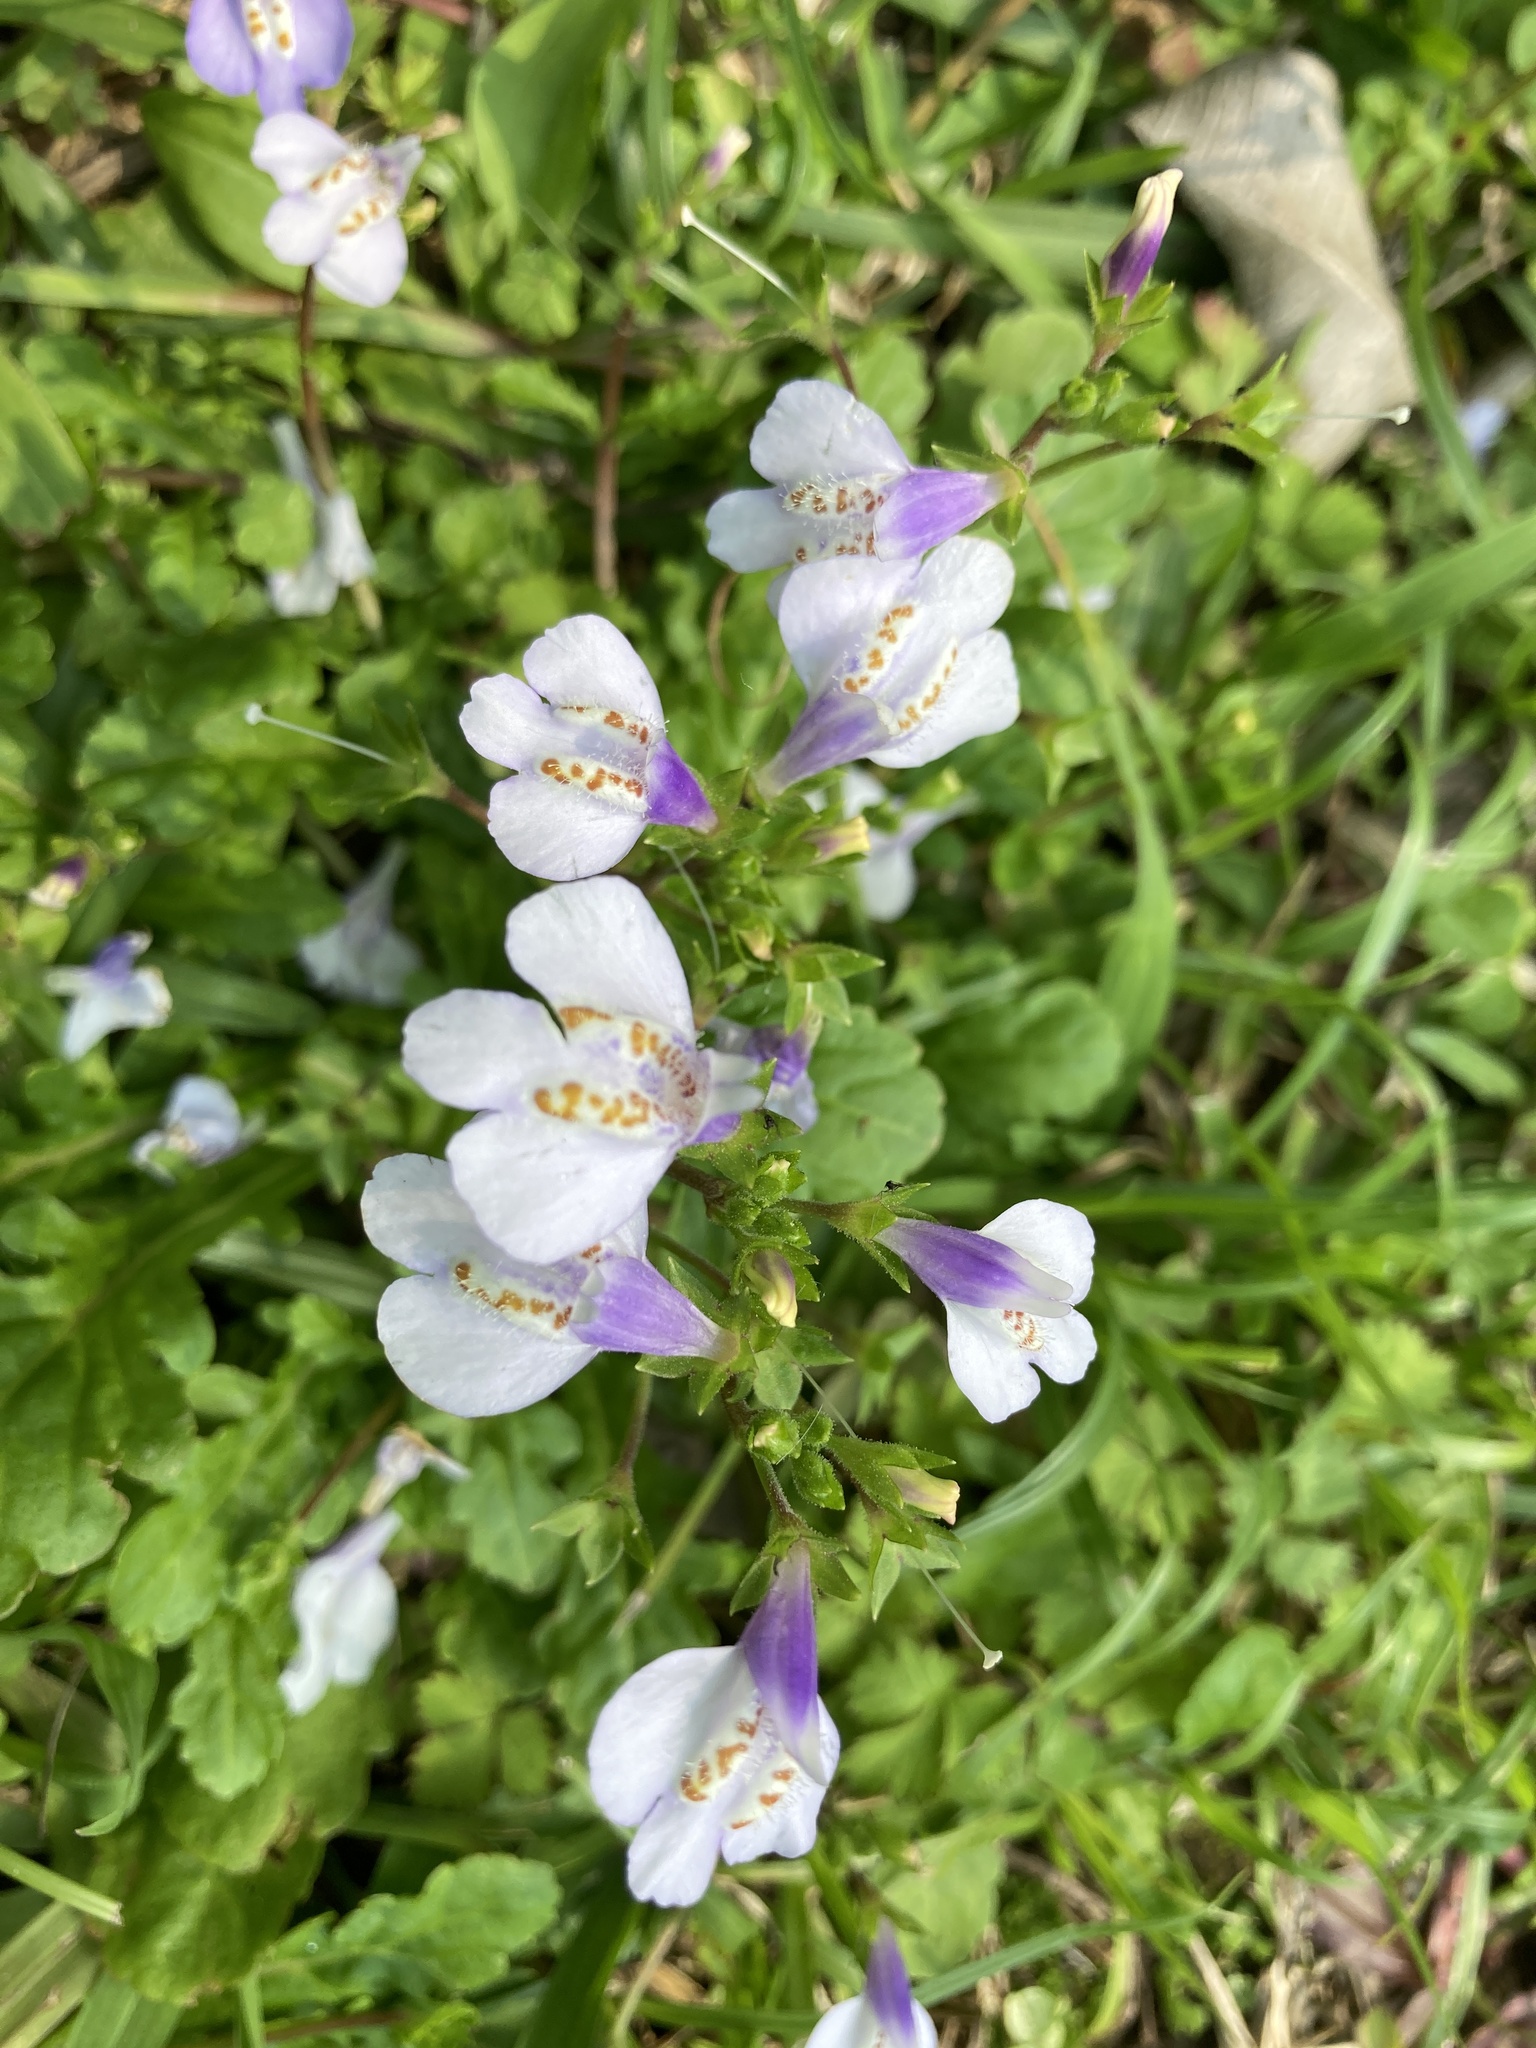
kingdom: Plantae
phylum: Tracheophyta
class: Magnoliopsida
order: Lamiales
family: Mazaceae
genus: Mazus
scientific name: Mazus fauriei
